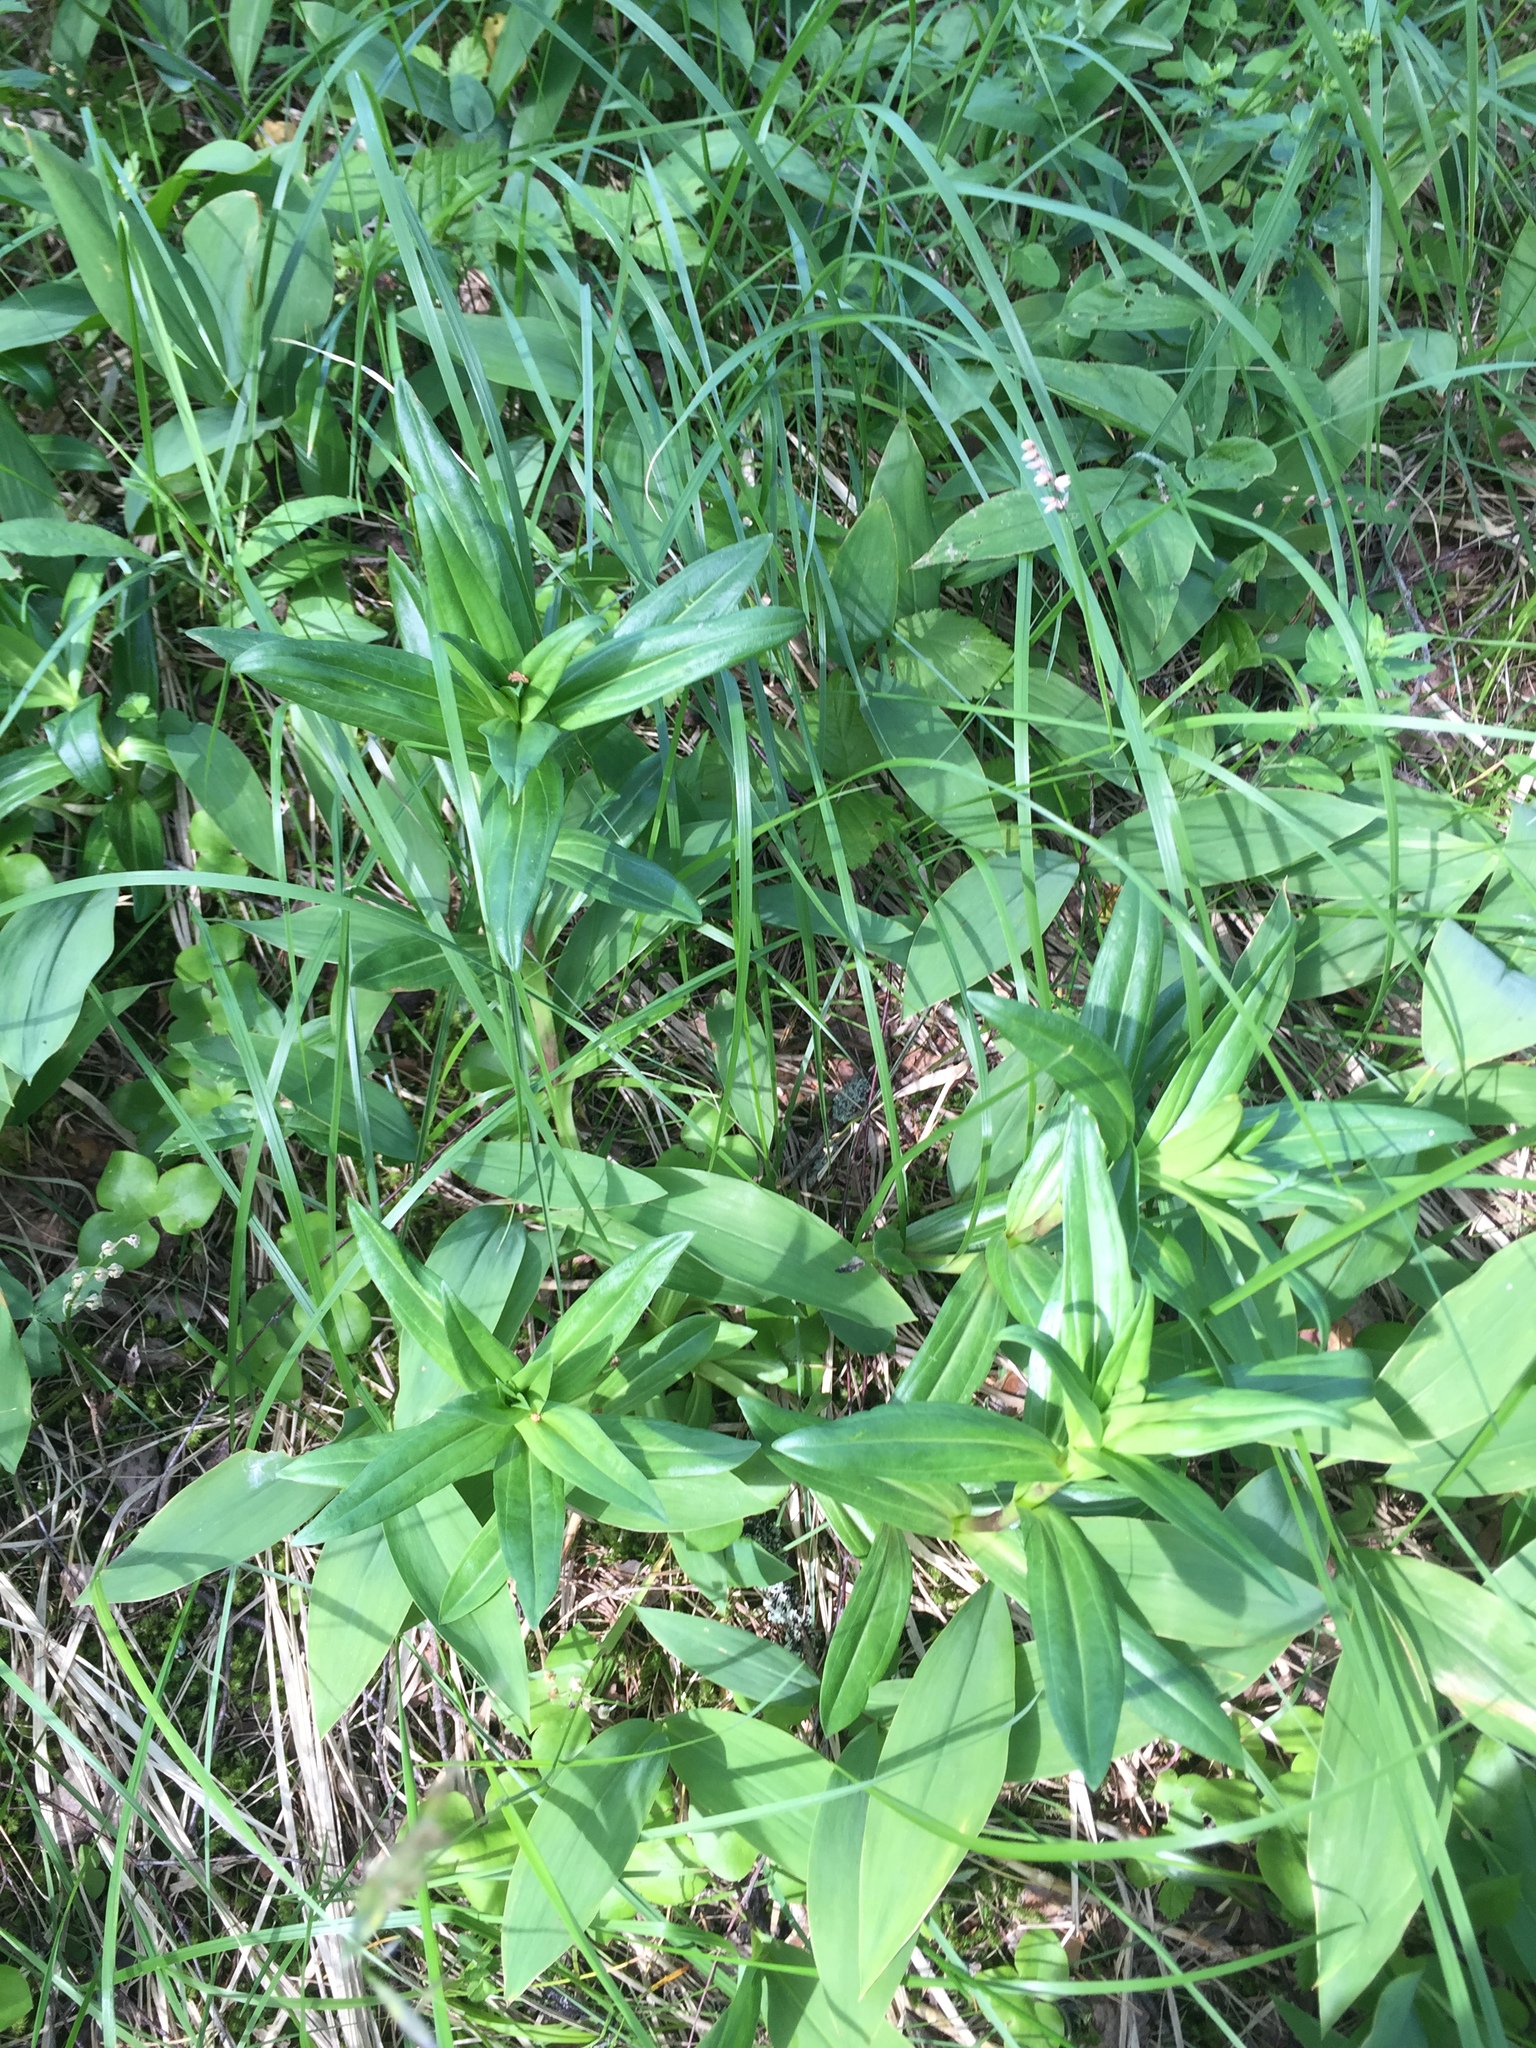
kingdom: Plantae
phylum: Tracheophyta
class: Magnoliopsida
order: Gentianales
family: Gentianaceae
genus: Gentiana
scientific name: Gentiana cruciata
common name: Cross gentian
